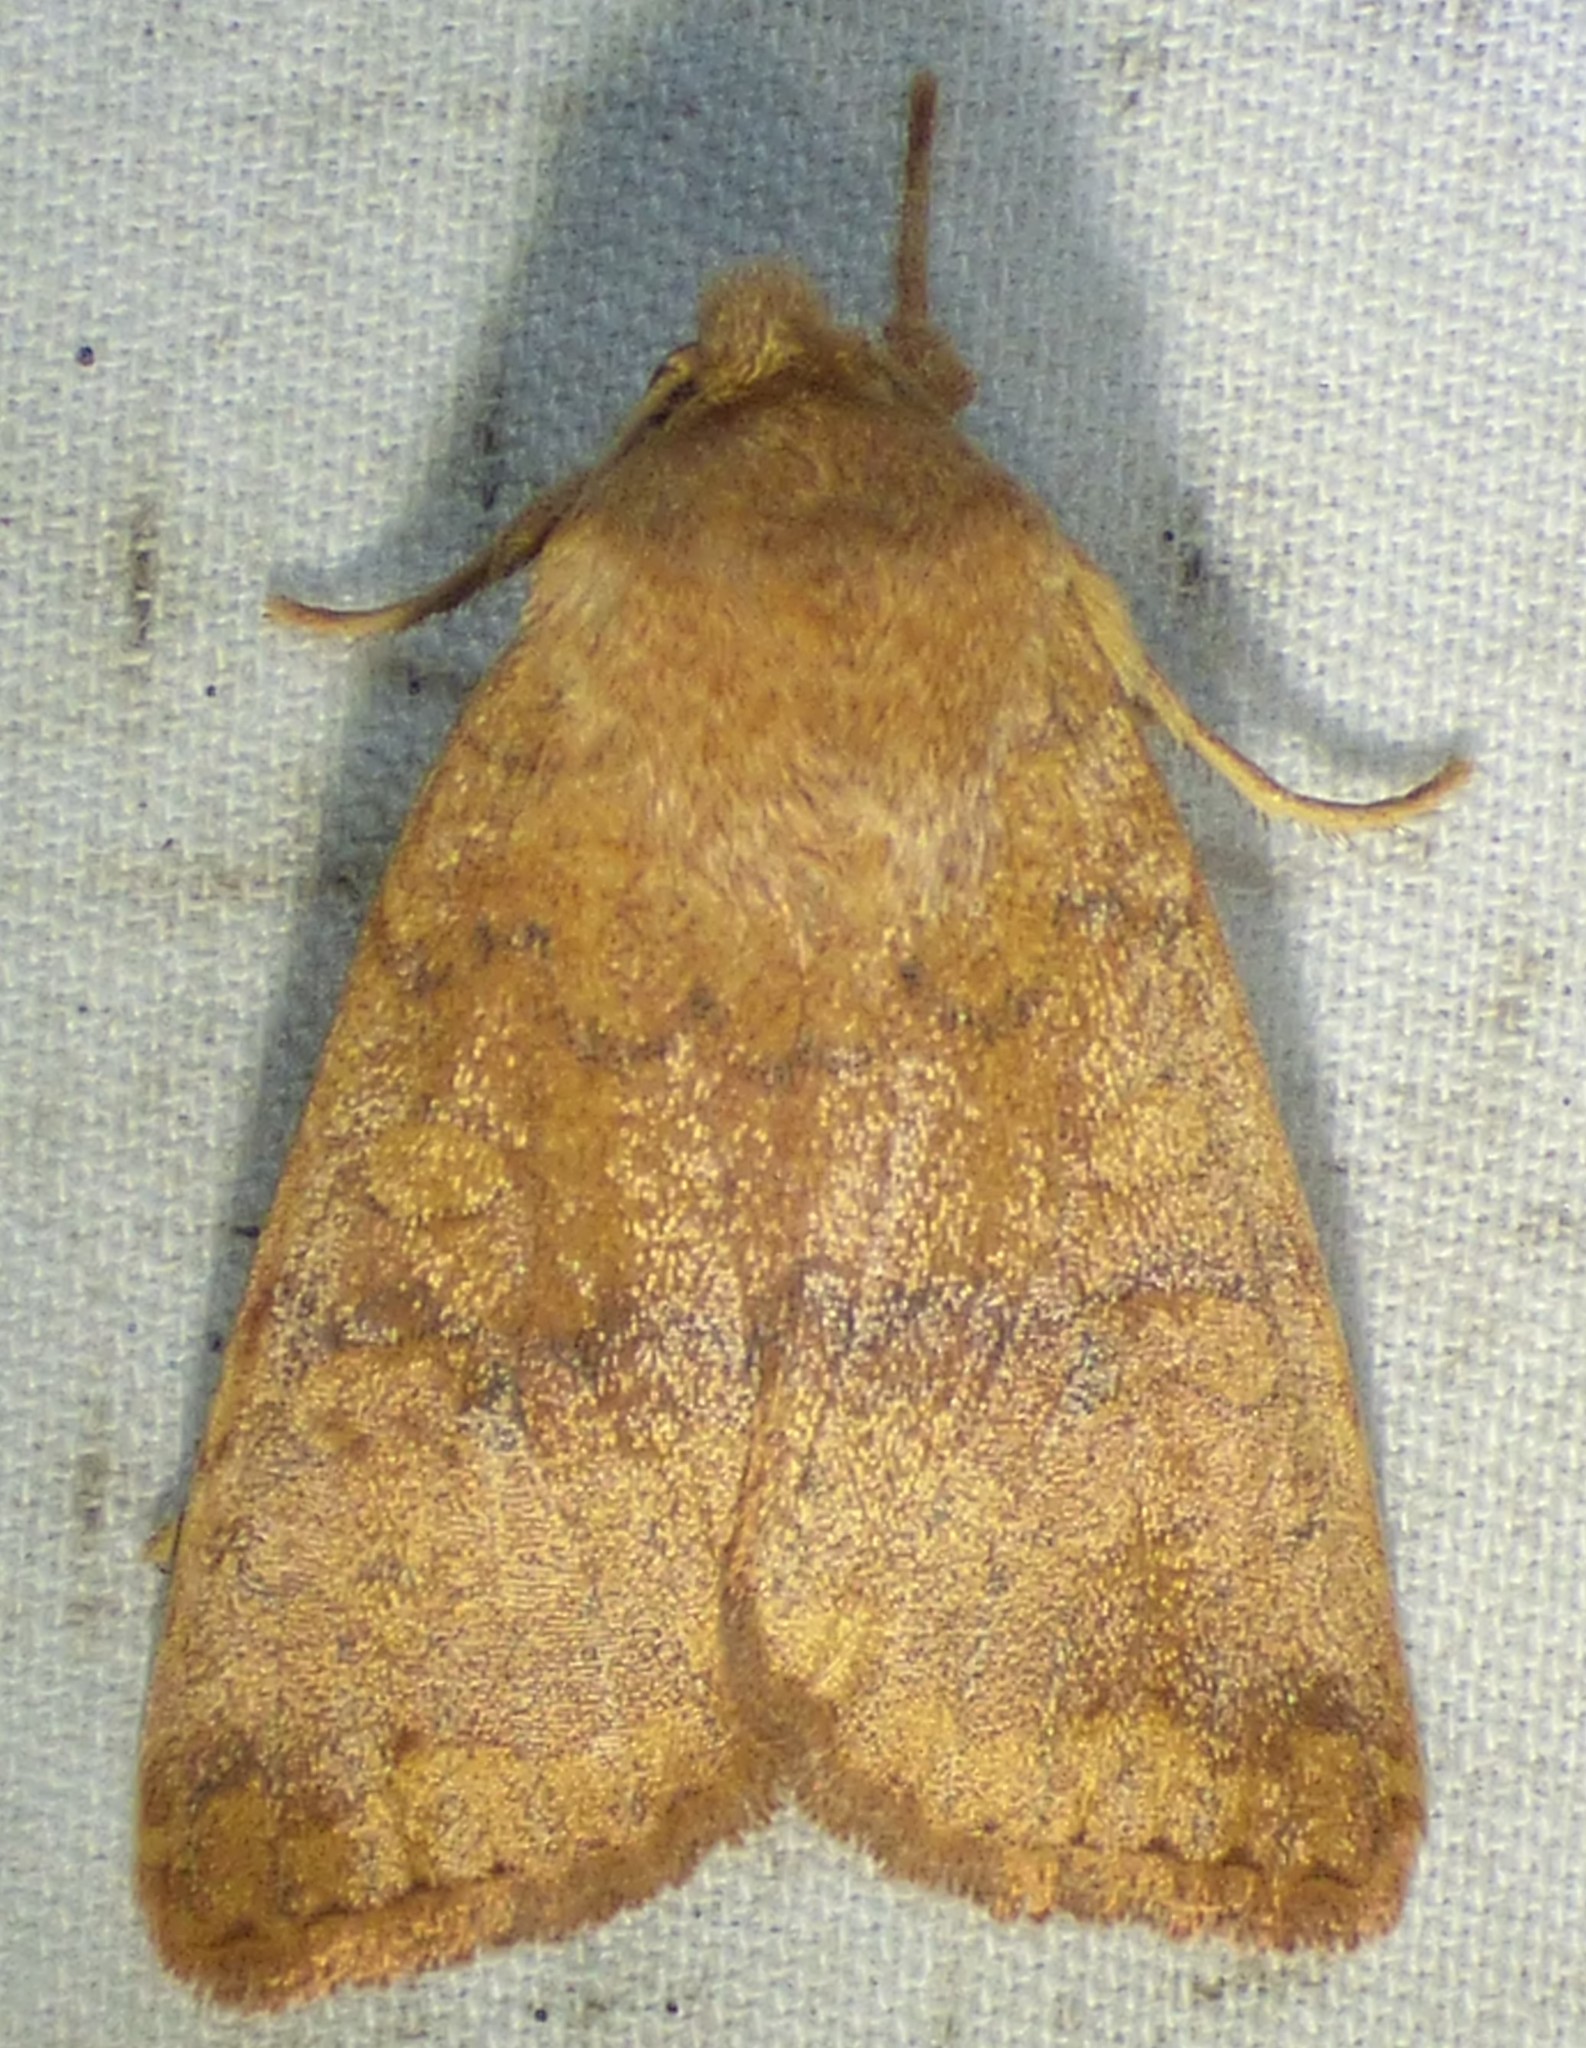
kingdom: Animalia
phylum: Arthropoda
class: Insecta
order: Lepidoptera
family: Noctuidae
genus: Agrochola
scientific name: Agrochola bicolorago
